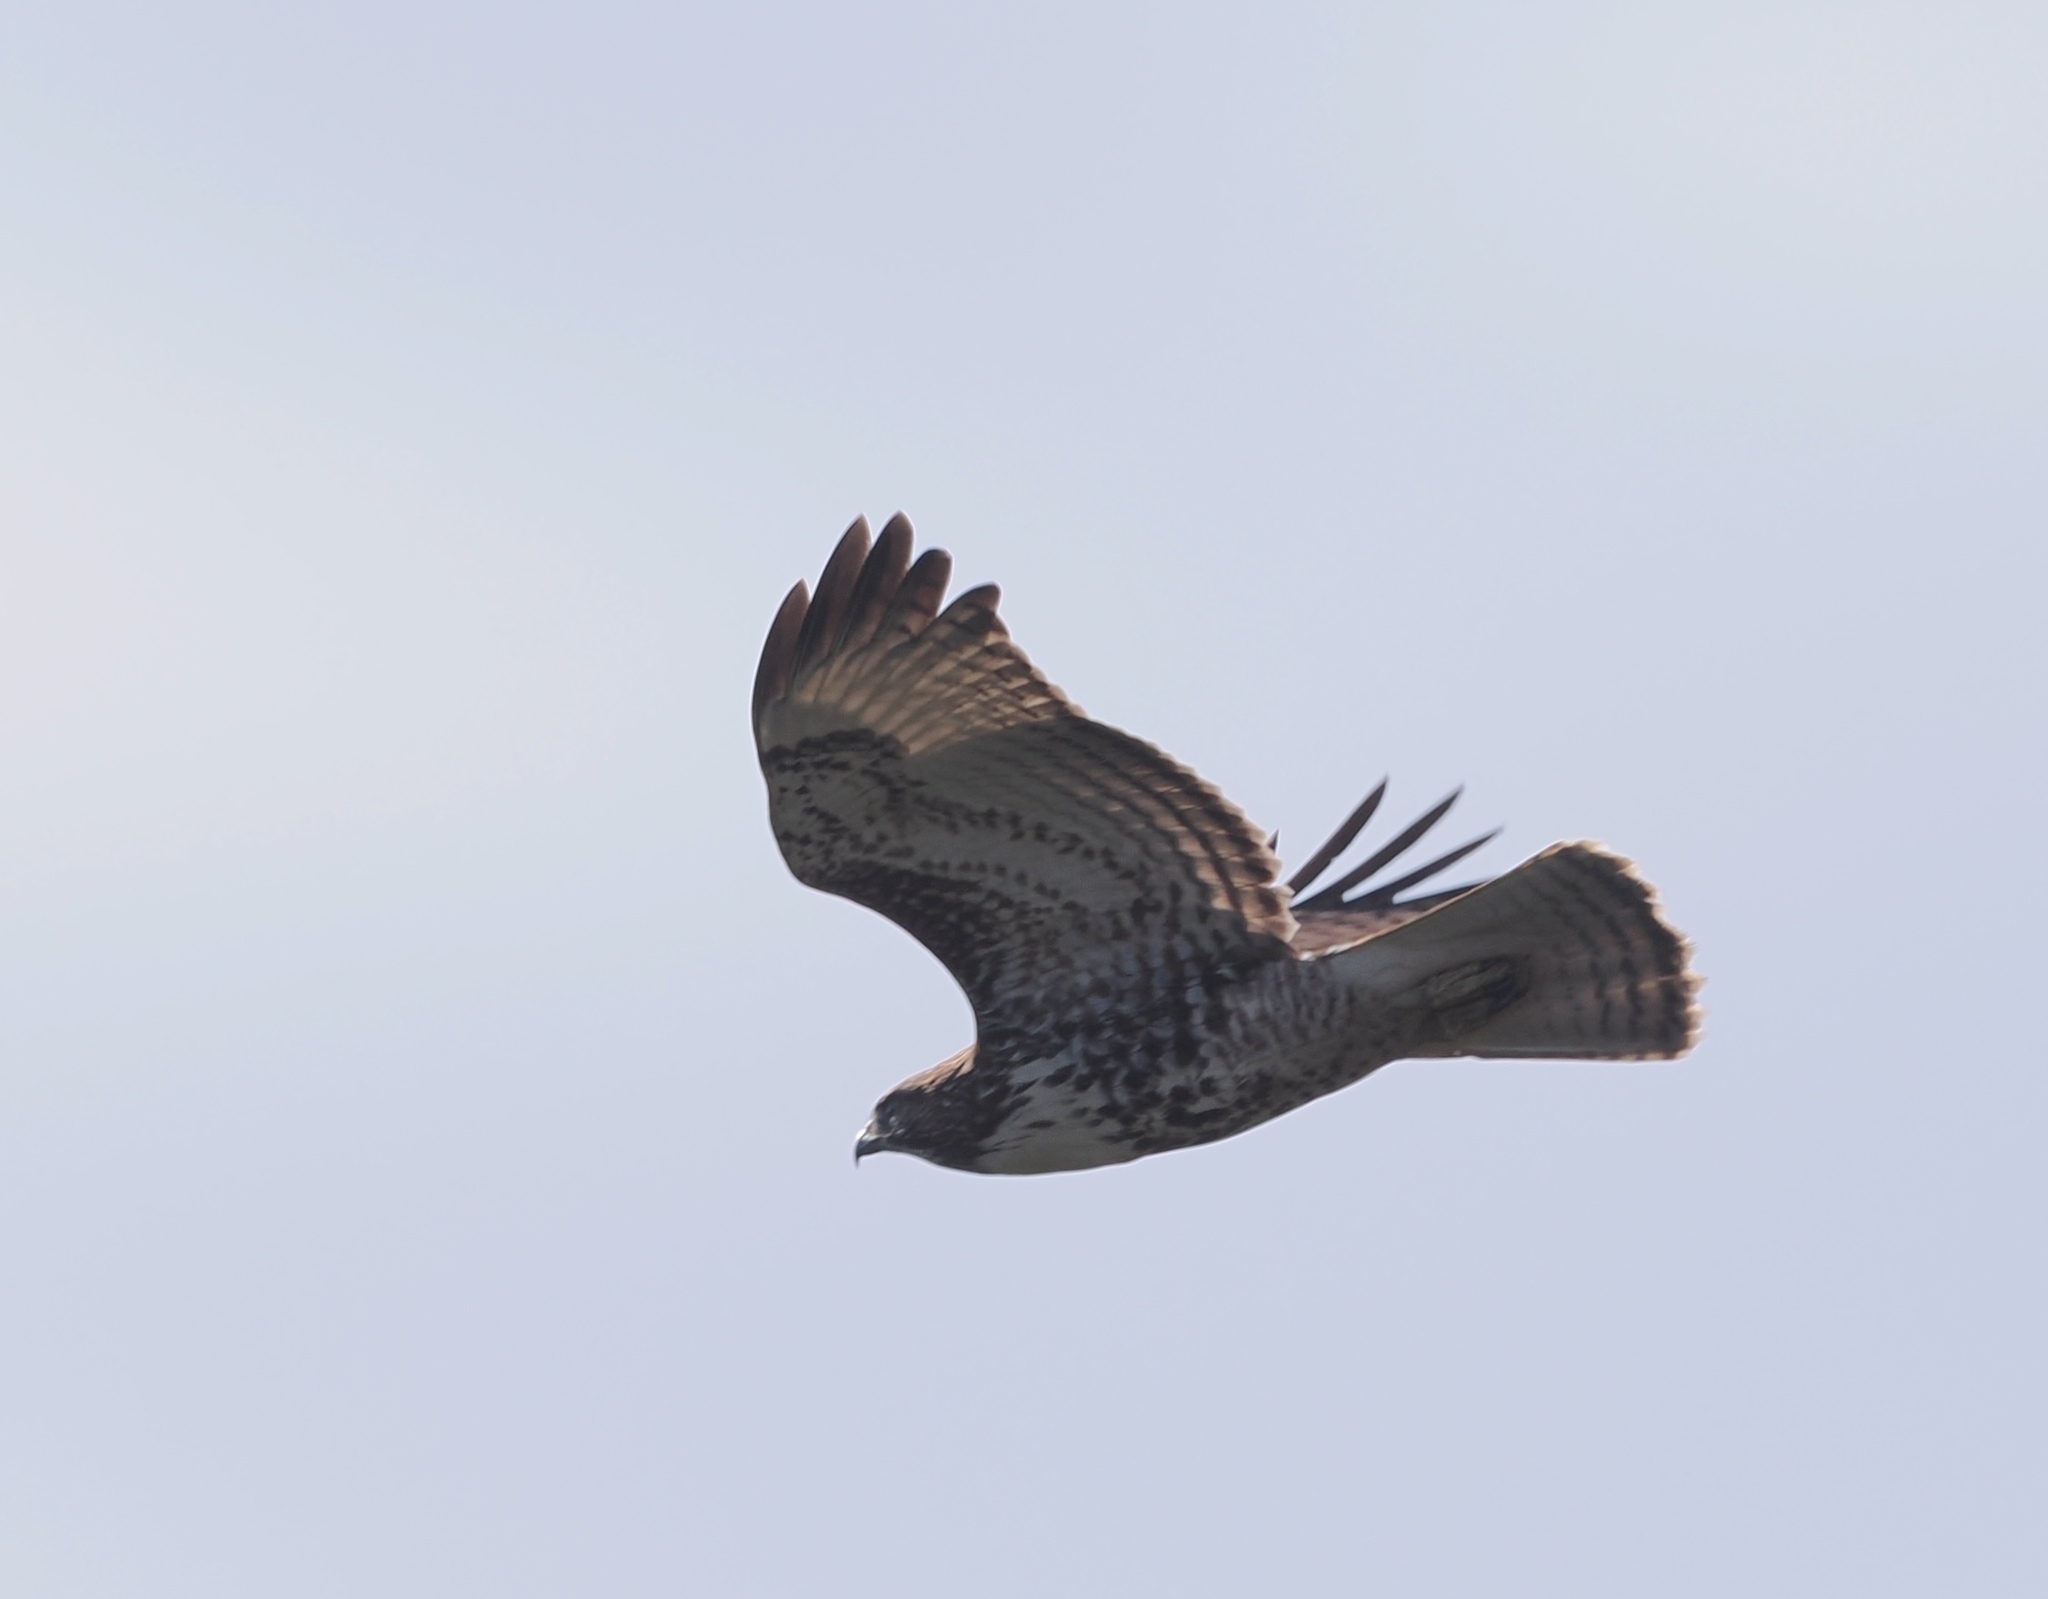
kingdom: Animalia
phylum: Chordata
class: Aves
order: Accipitriformes
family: Accipitridae
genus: Buteo
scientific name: Buteo jamaicensis
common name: Red-tailed hawk
